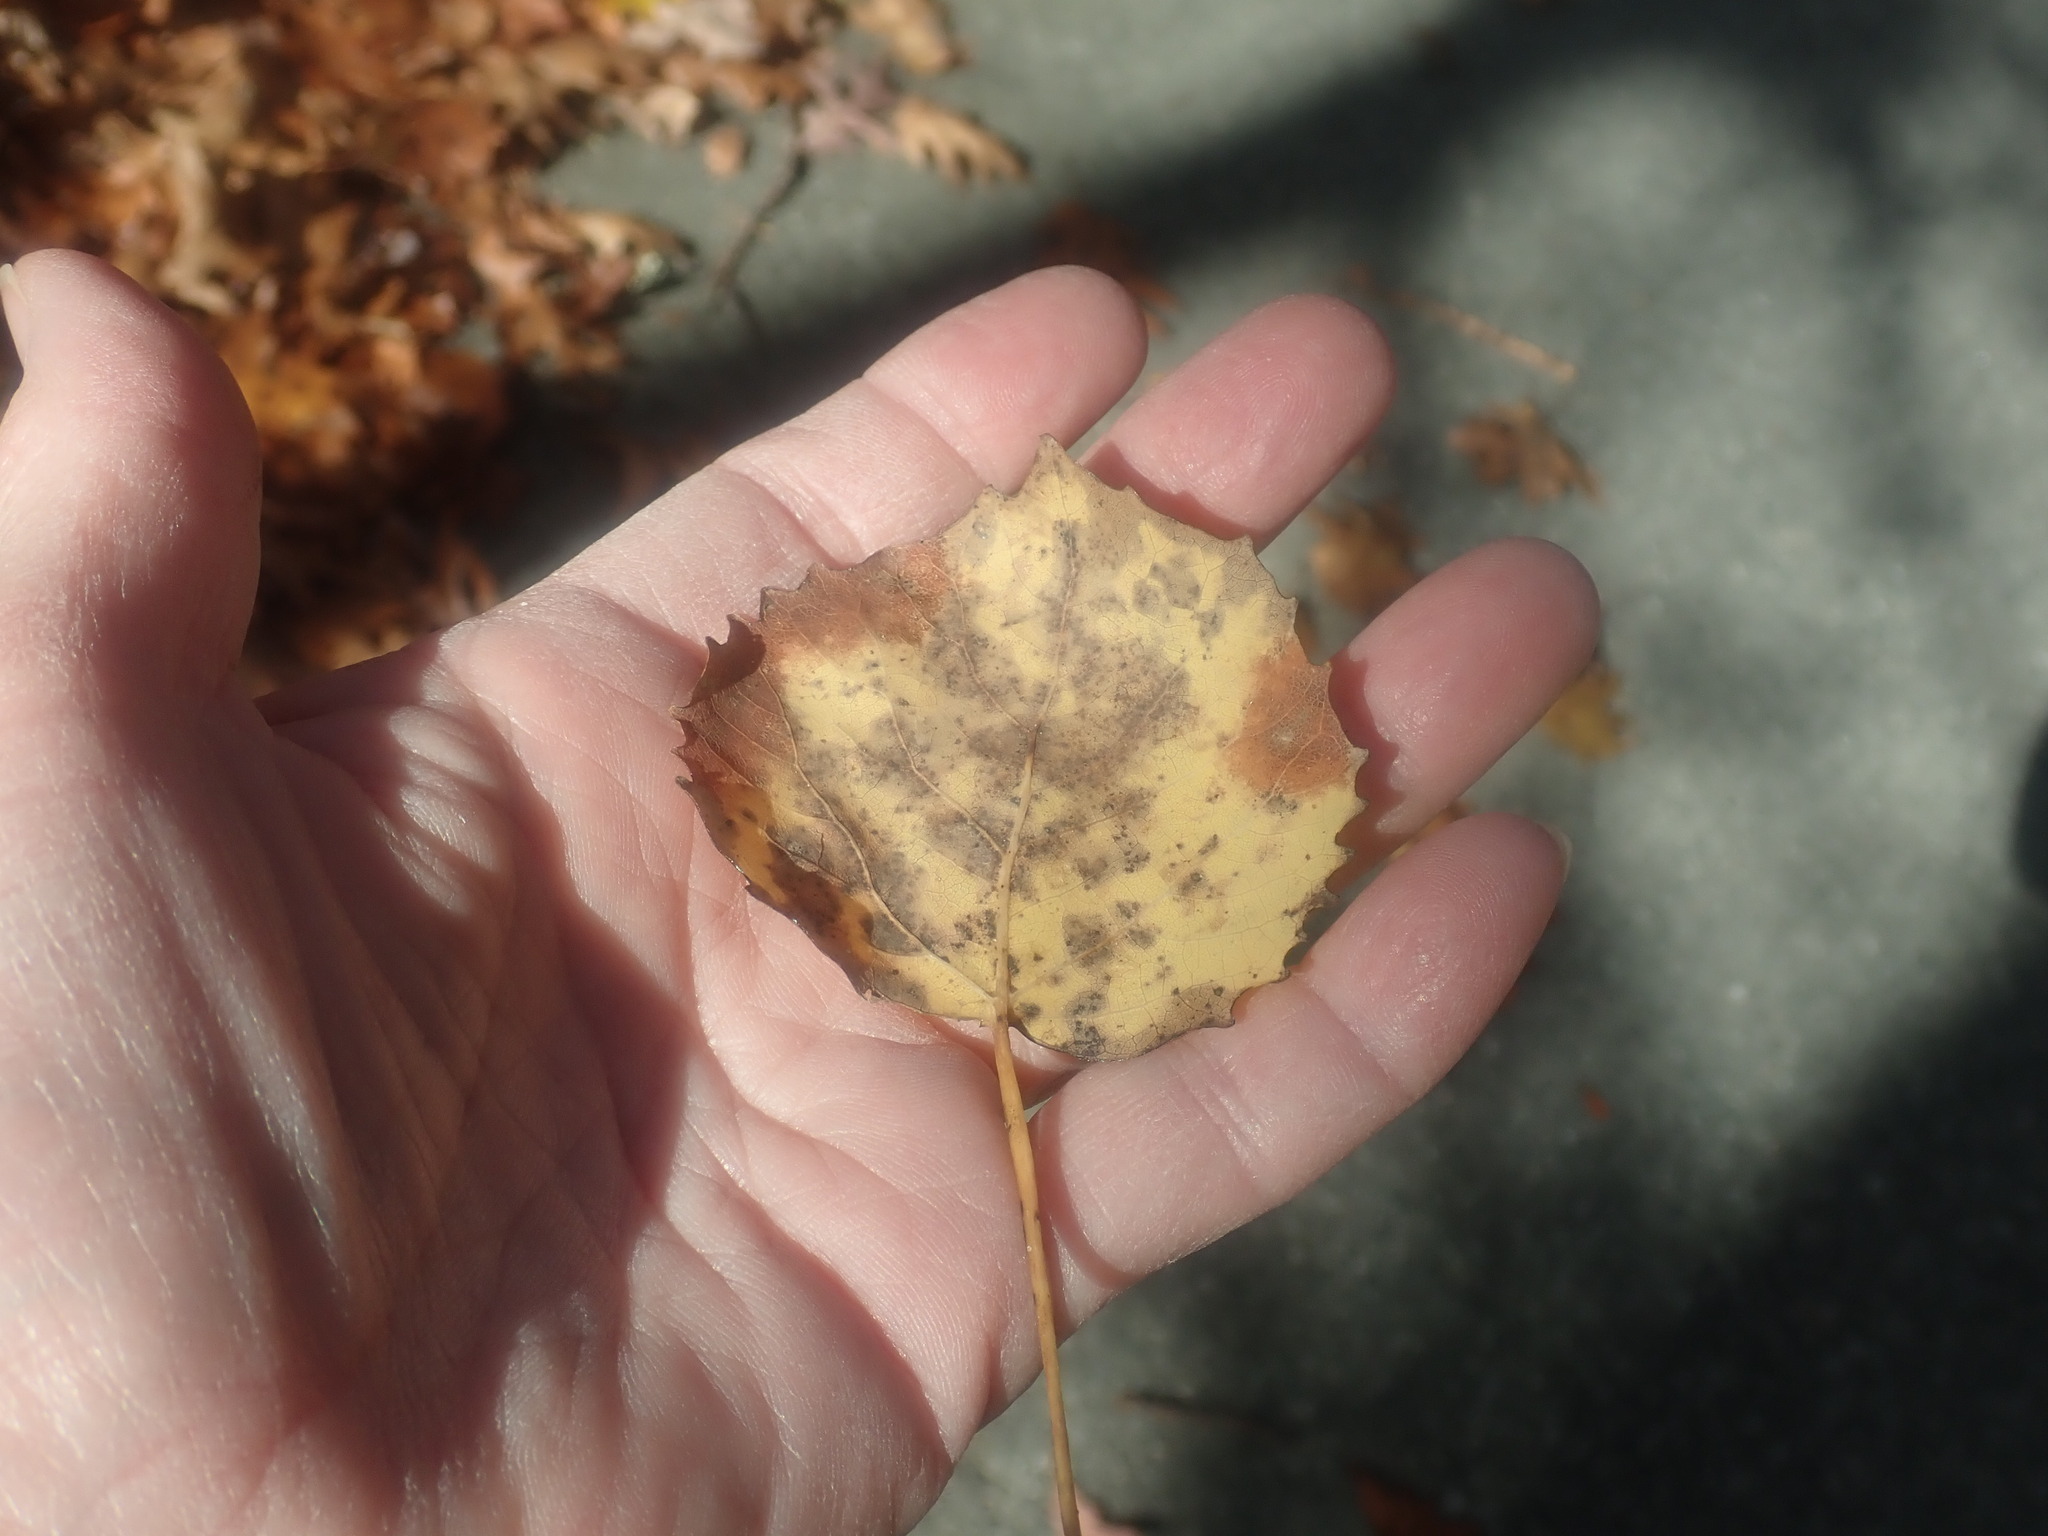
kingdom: Plantae
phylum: Tracheophyta
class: Magnoliopsida
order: Malpighiales
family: Salicaceae
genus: Populus
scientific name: Populus grandidentata
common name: Bigtooth aspen
